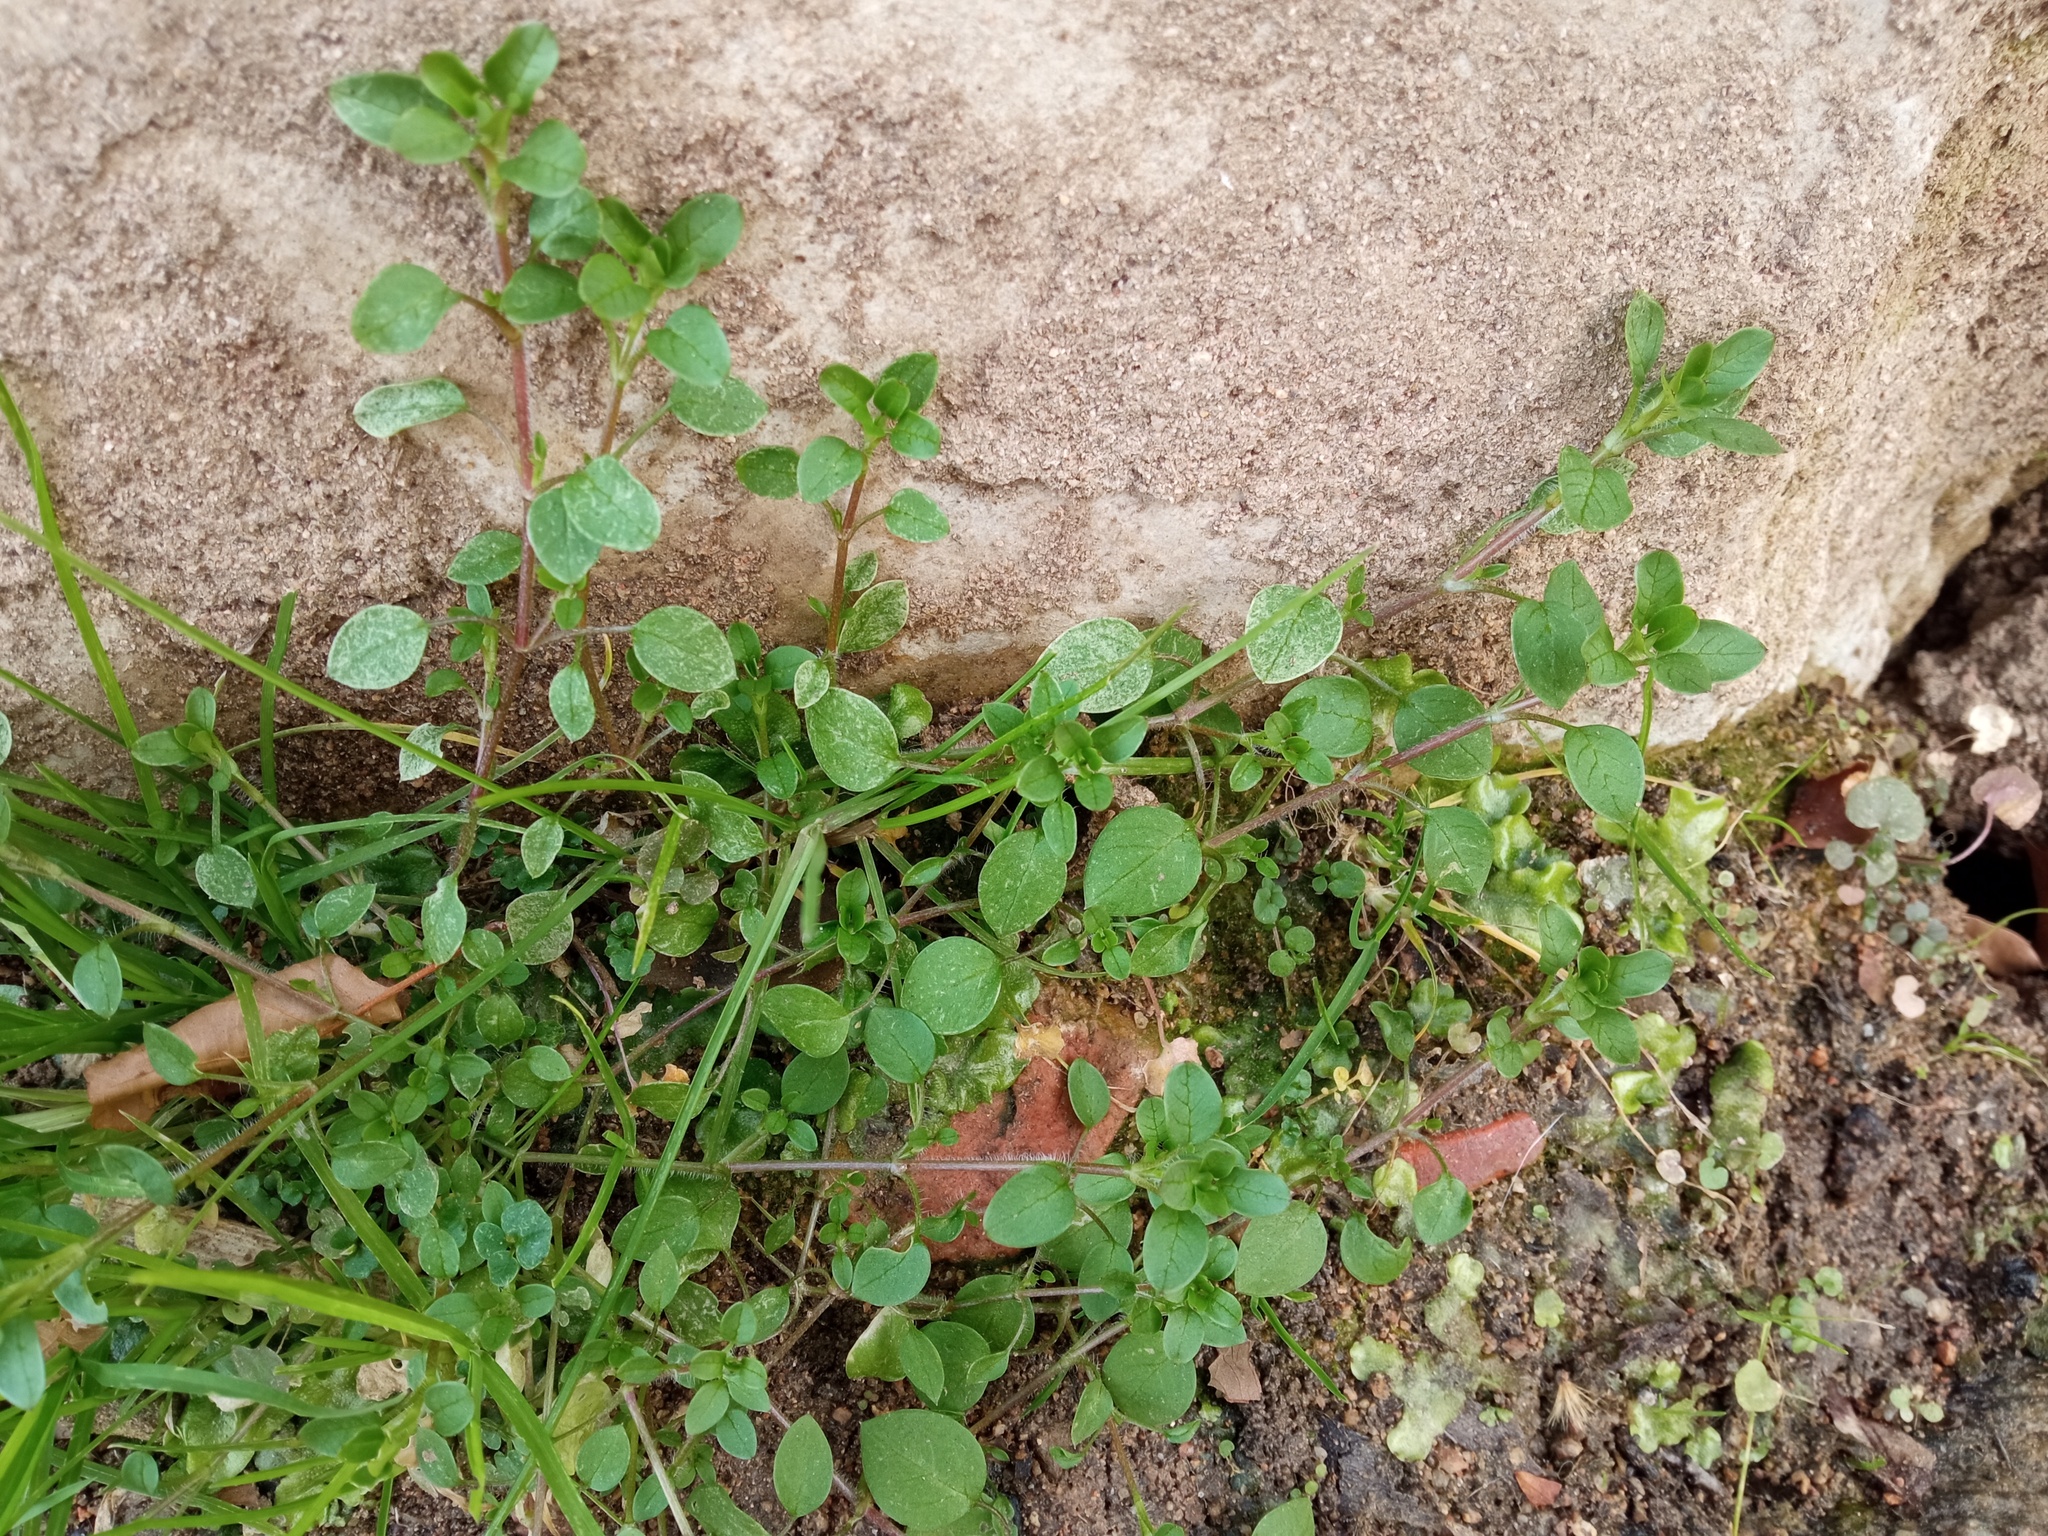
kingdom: Plantae
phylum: Tracheophyta
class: Magnoliopsida
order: Caryophyllales
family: Caryophyllaceae
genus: Stellaria
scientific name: Stellaria media
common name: Common chickweed
